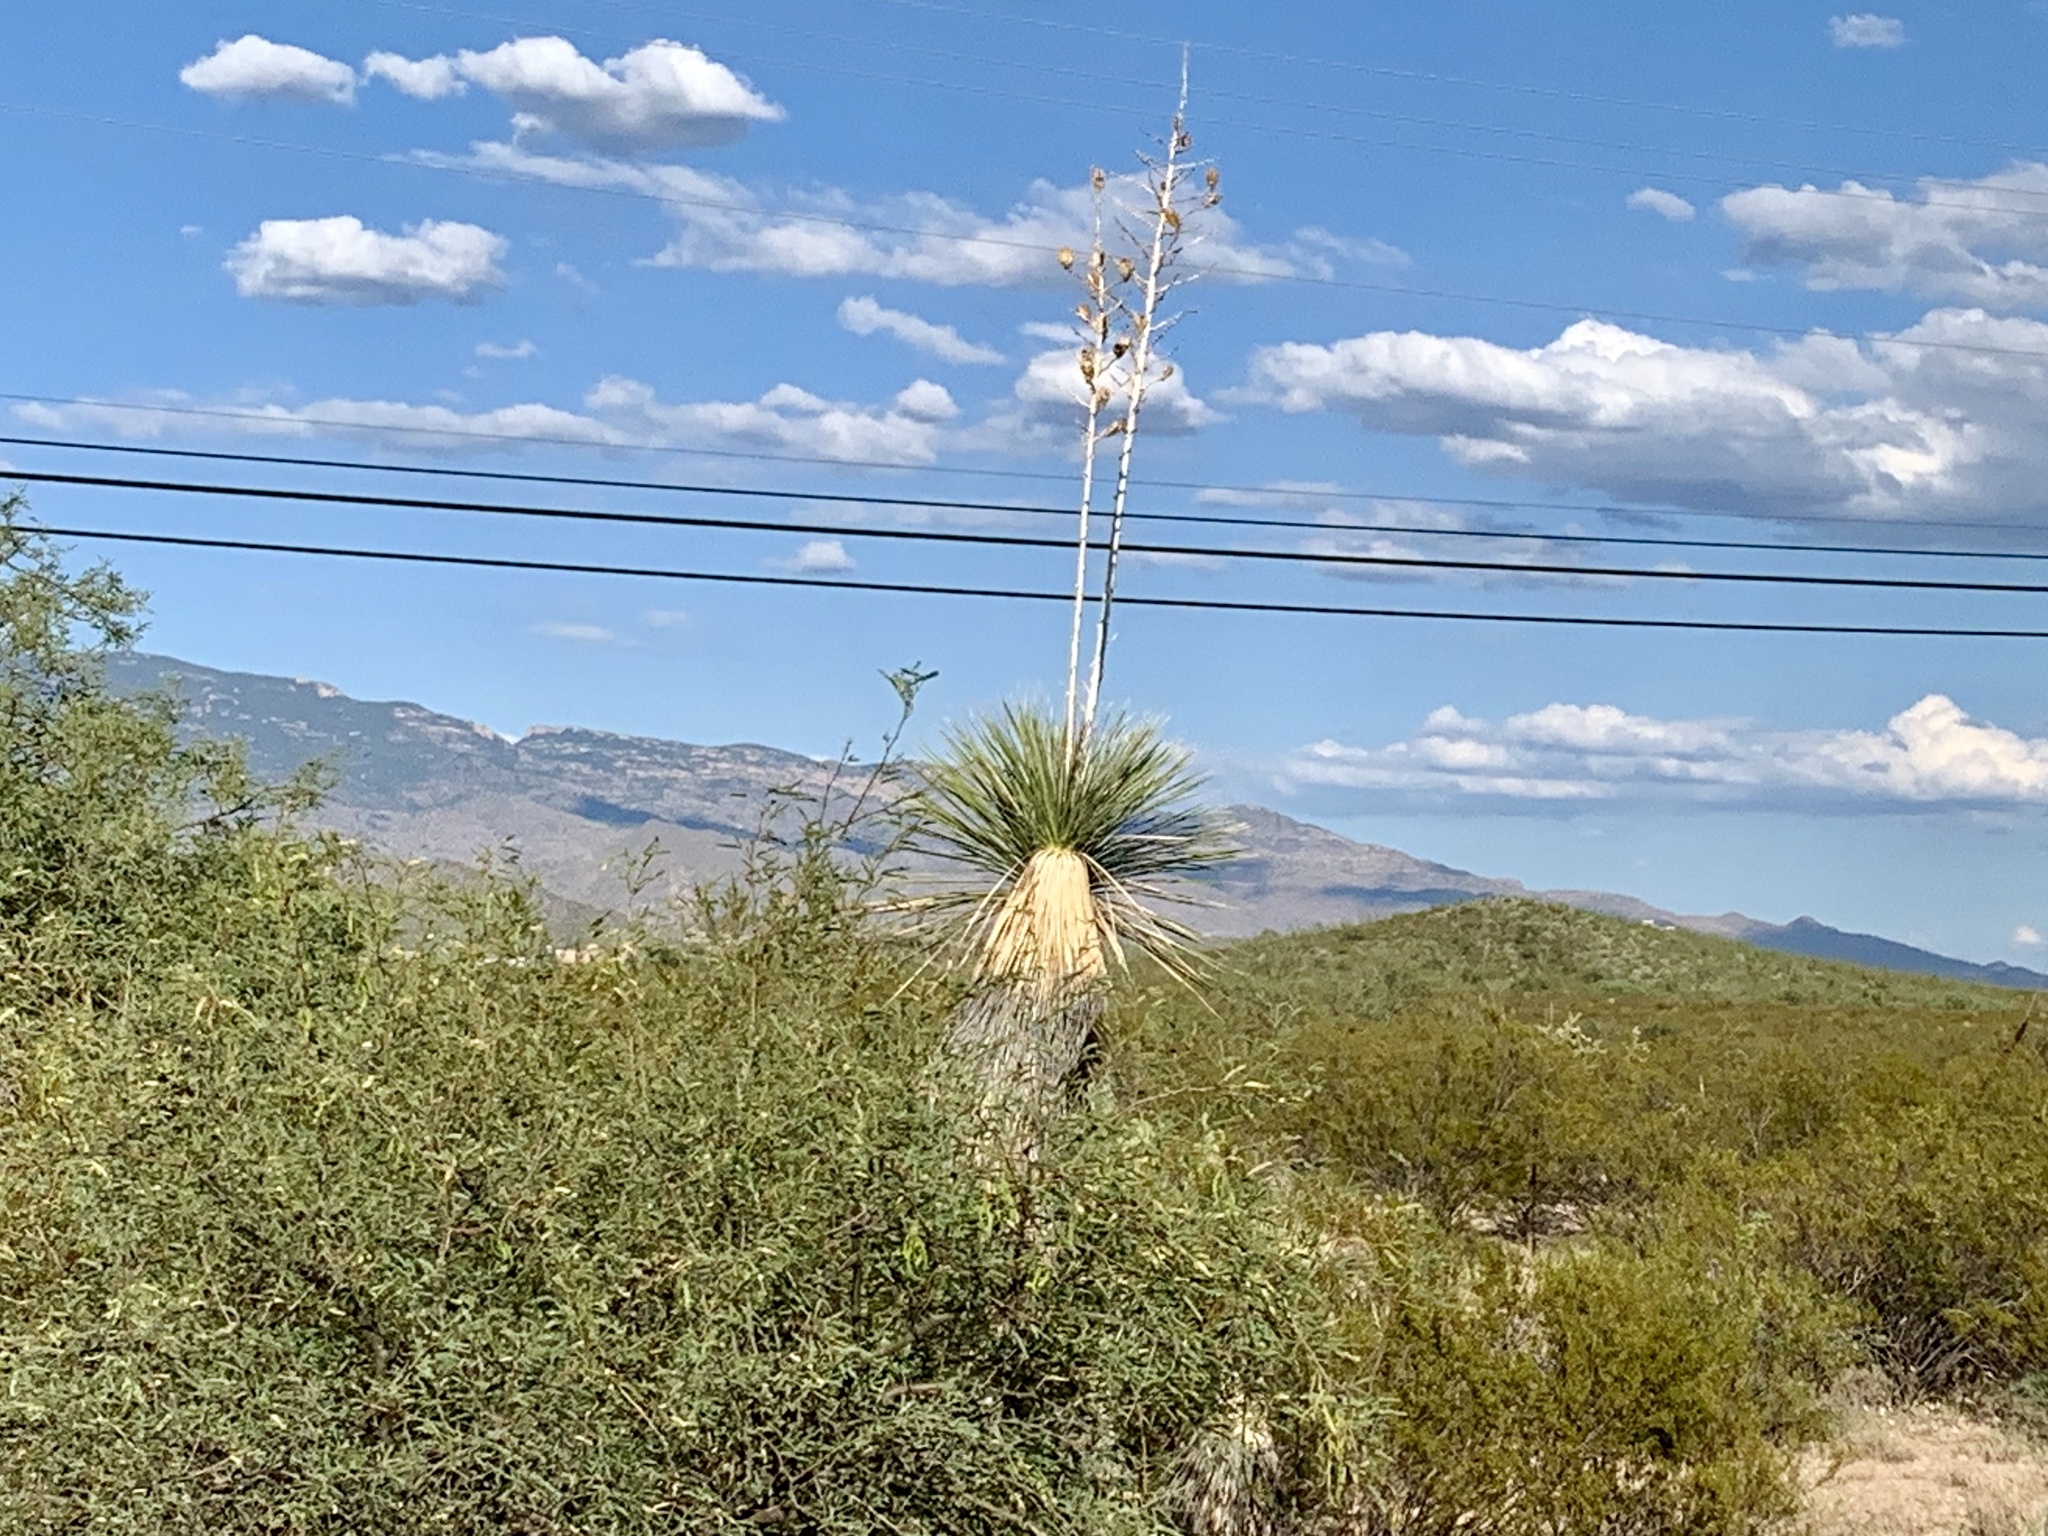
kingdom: Plantae
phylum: Tracheophyta
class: Liliopsida
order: Asparagales
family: Asparagaceae
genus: Yucca
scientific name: Yucca elata
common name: Palmella
